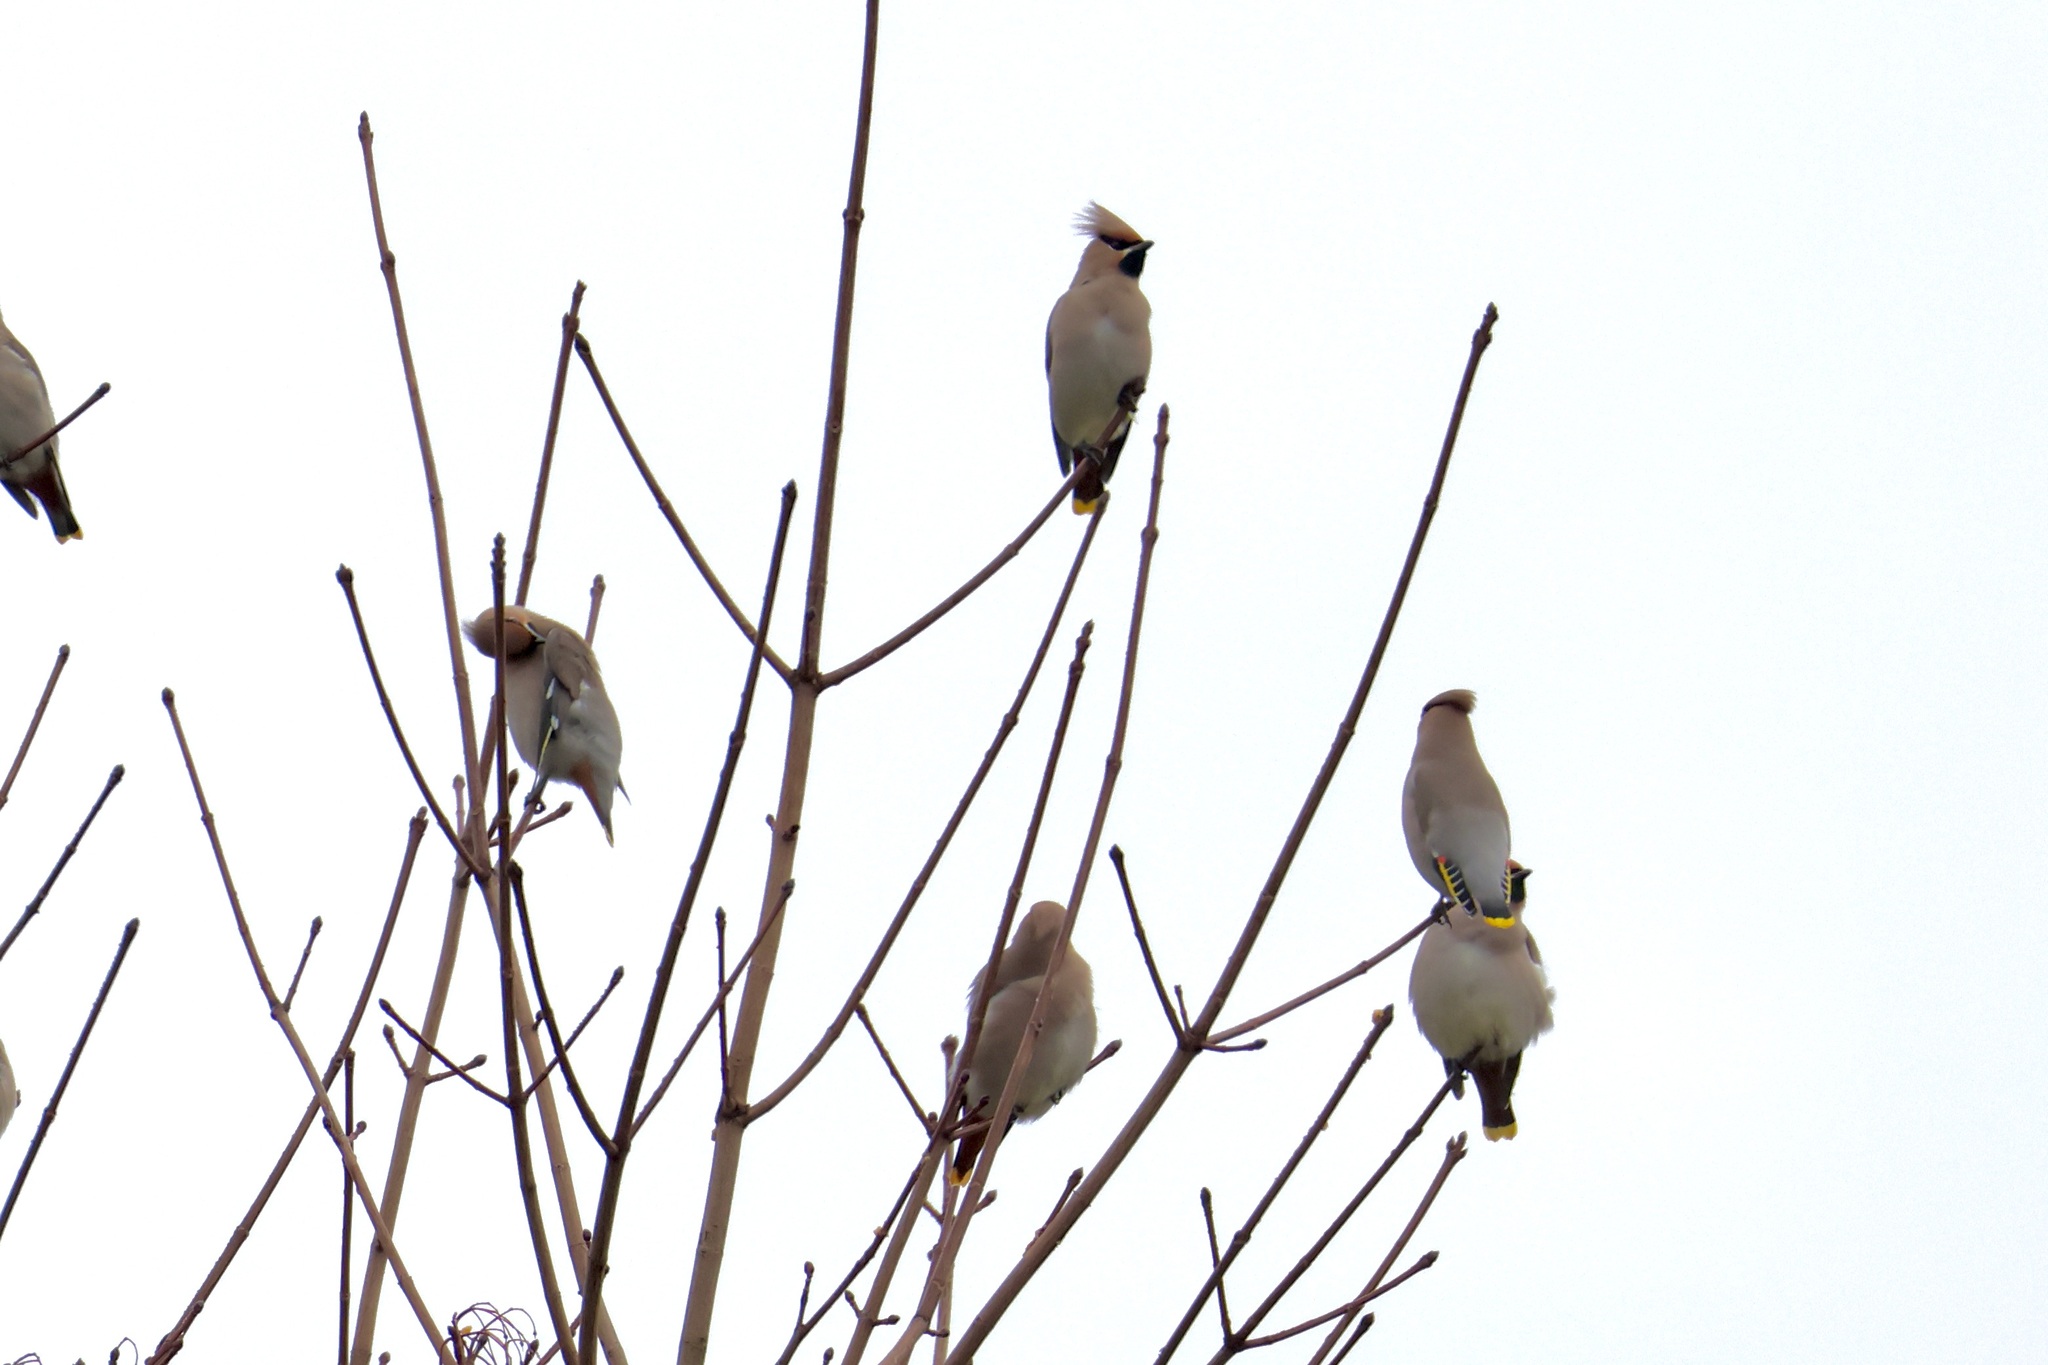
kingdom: Animalia
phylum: Chordata
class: Aves
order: Passeriformes
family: Bombycillidae
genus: Bombycilla
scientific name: Bombycilla garrulus
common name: Bohemian waxwing
